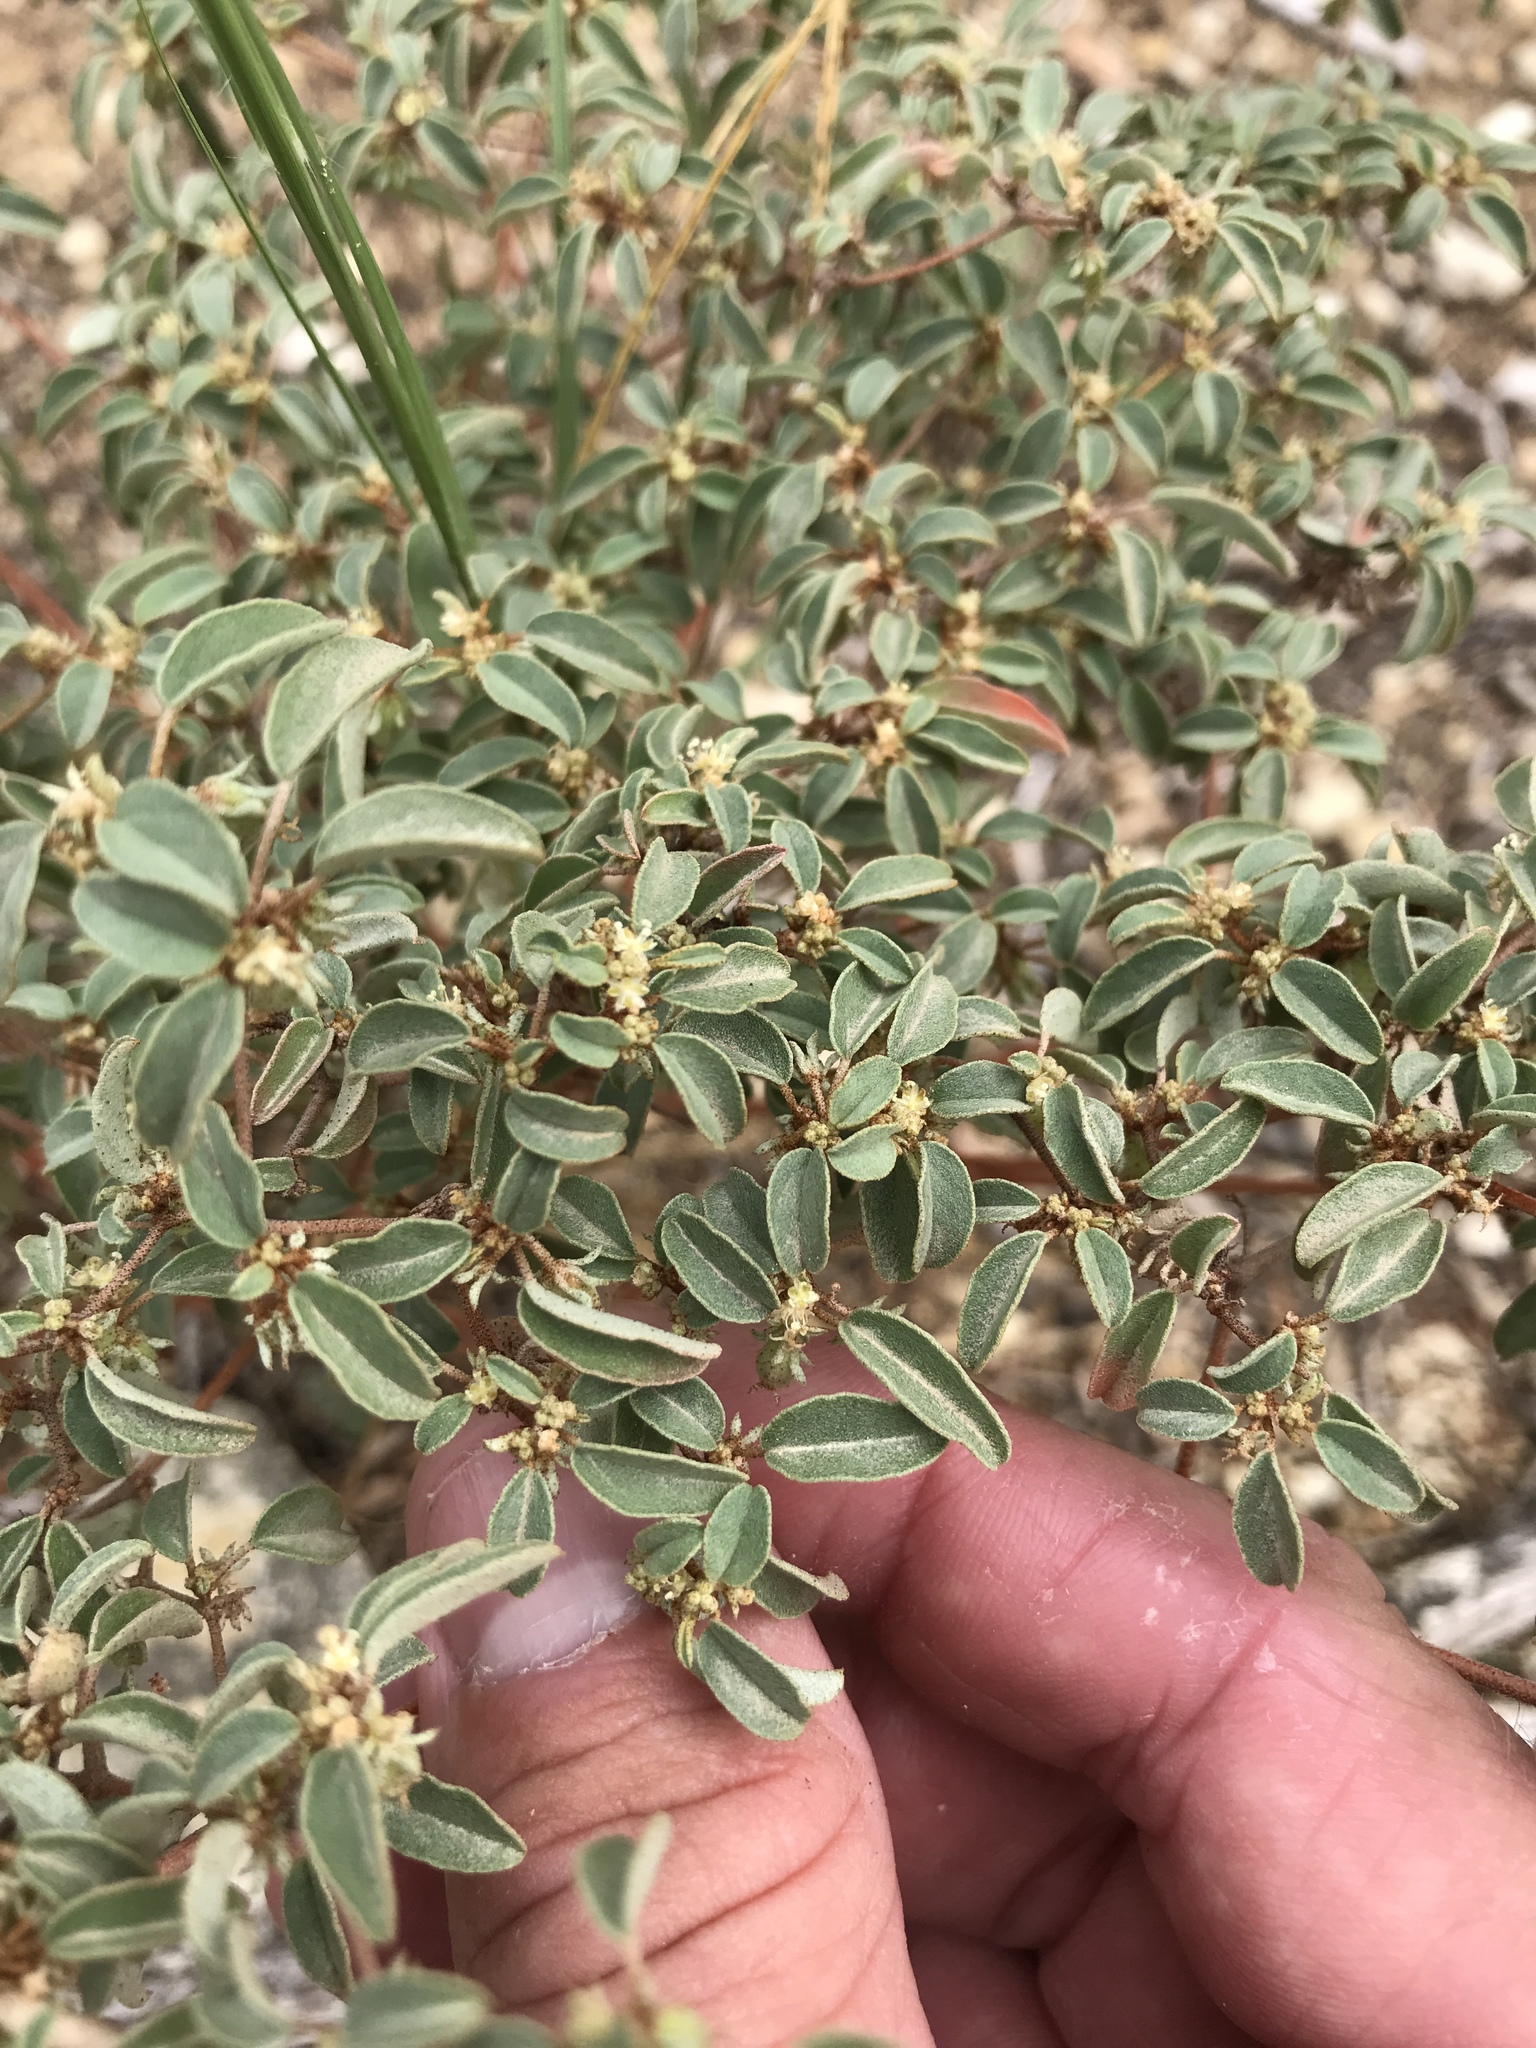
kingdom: Plantae
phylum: Tracheophyta
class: Magnoliopsida
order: Malpighiales
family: Euphorbiaceae
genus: Croton
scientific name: Croton monanthogynus
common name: One-seed croton
